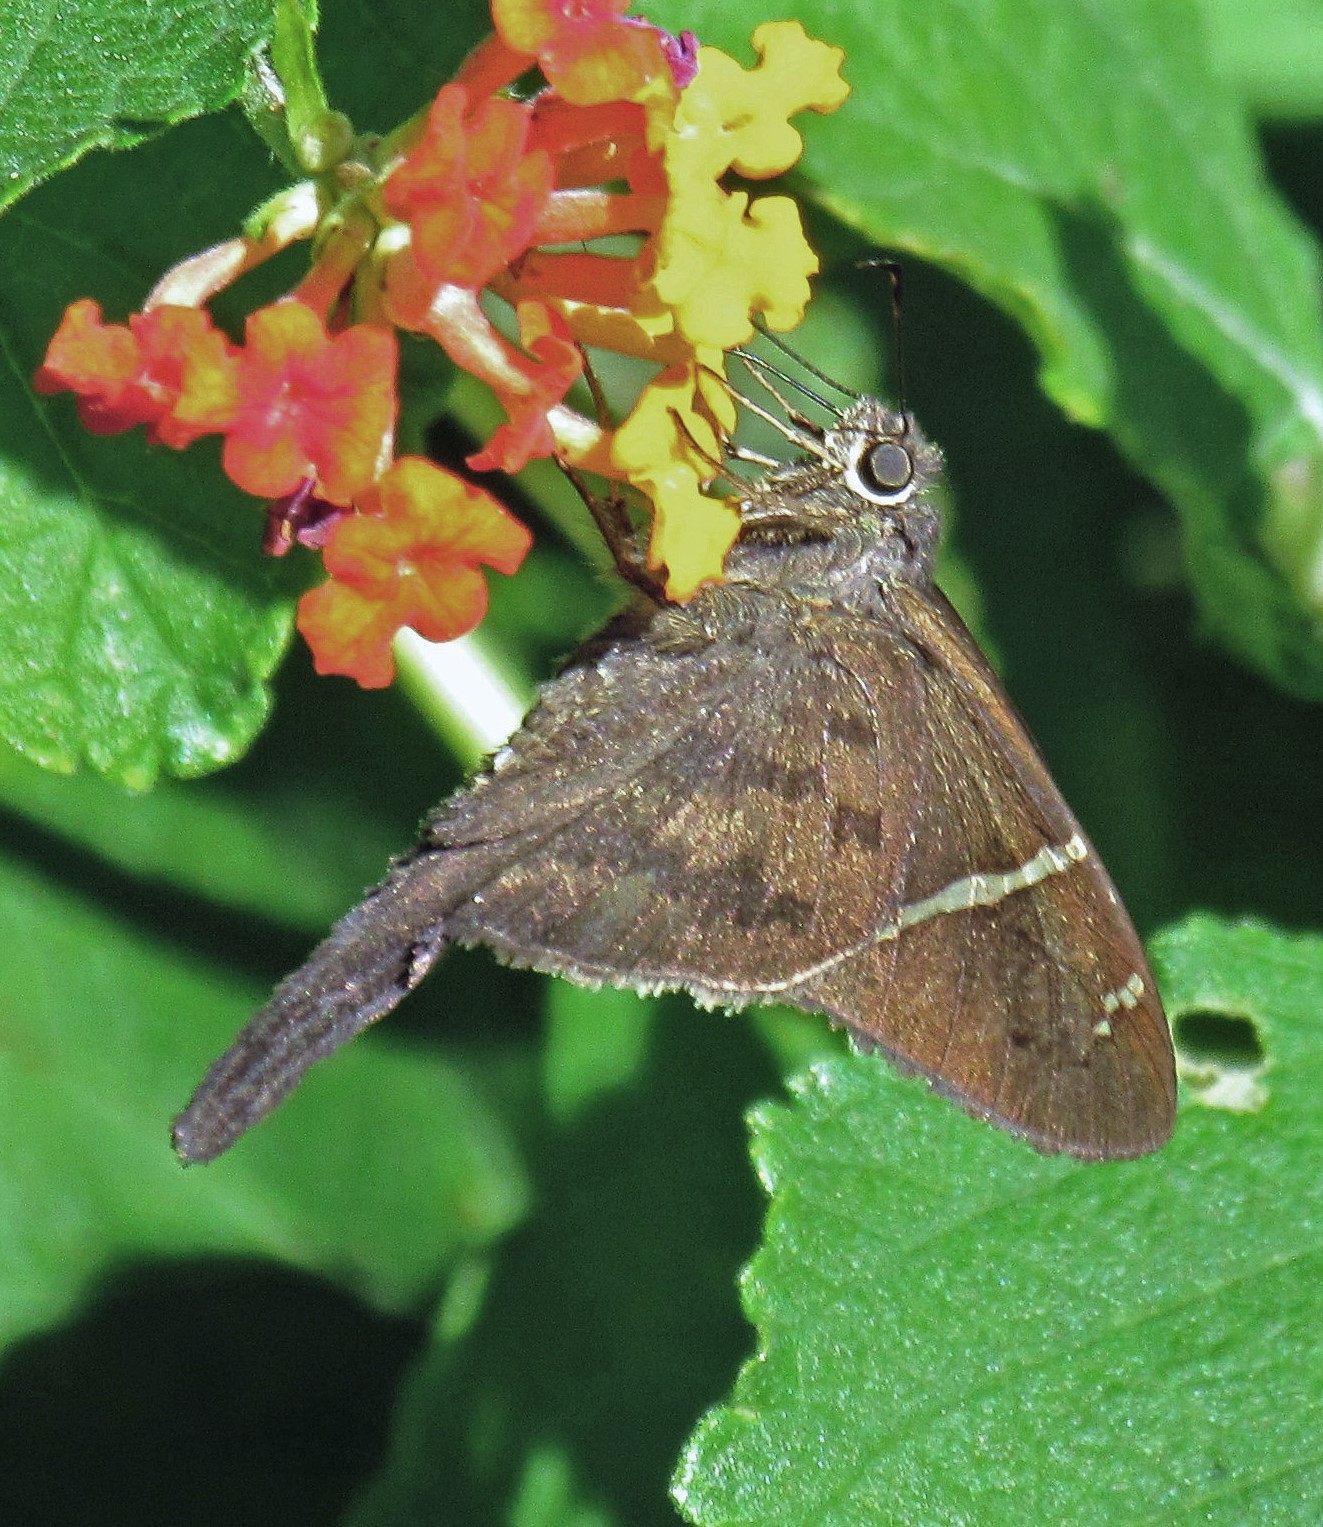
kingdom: Animalia
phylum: Arthropoda
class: Insecta
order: Lepidoptera
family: Hesperiidae
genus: Urbanus
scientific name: Urbanus teleus
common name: Teleus longtail
